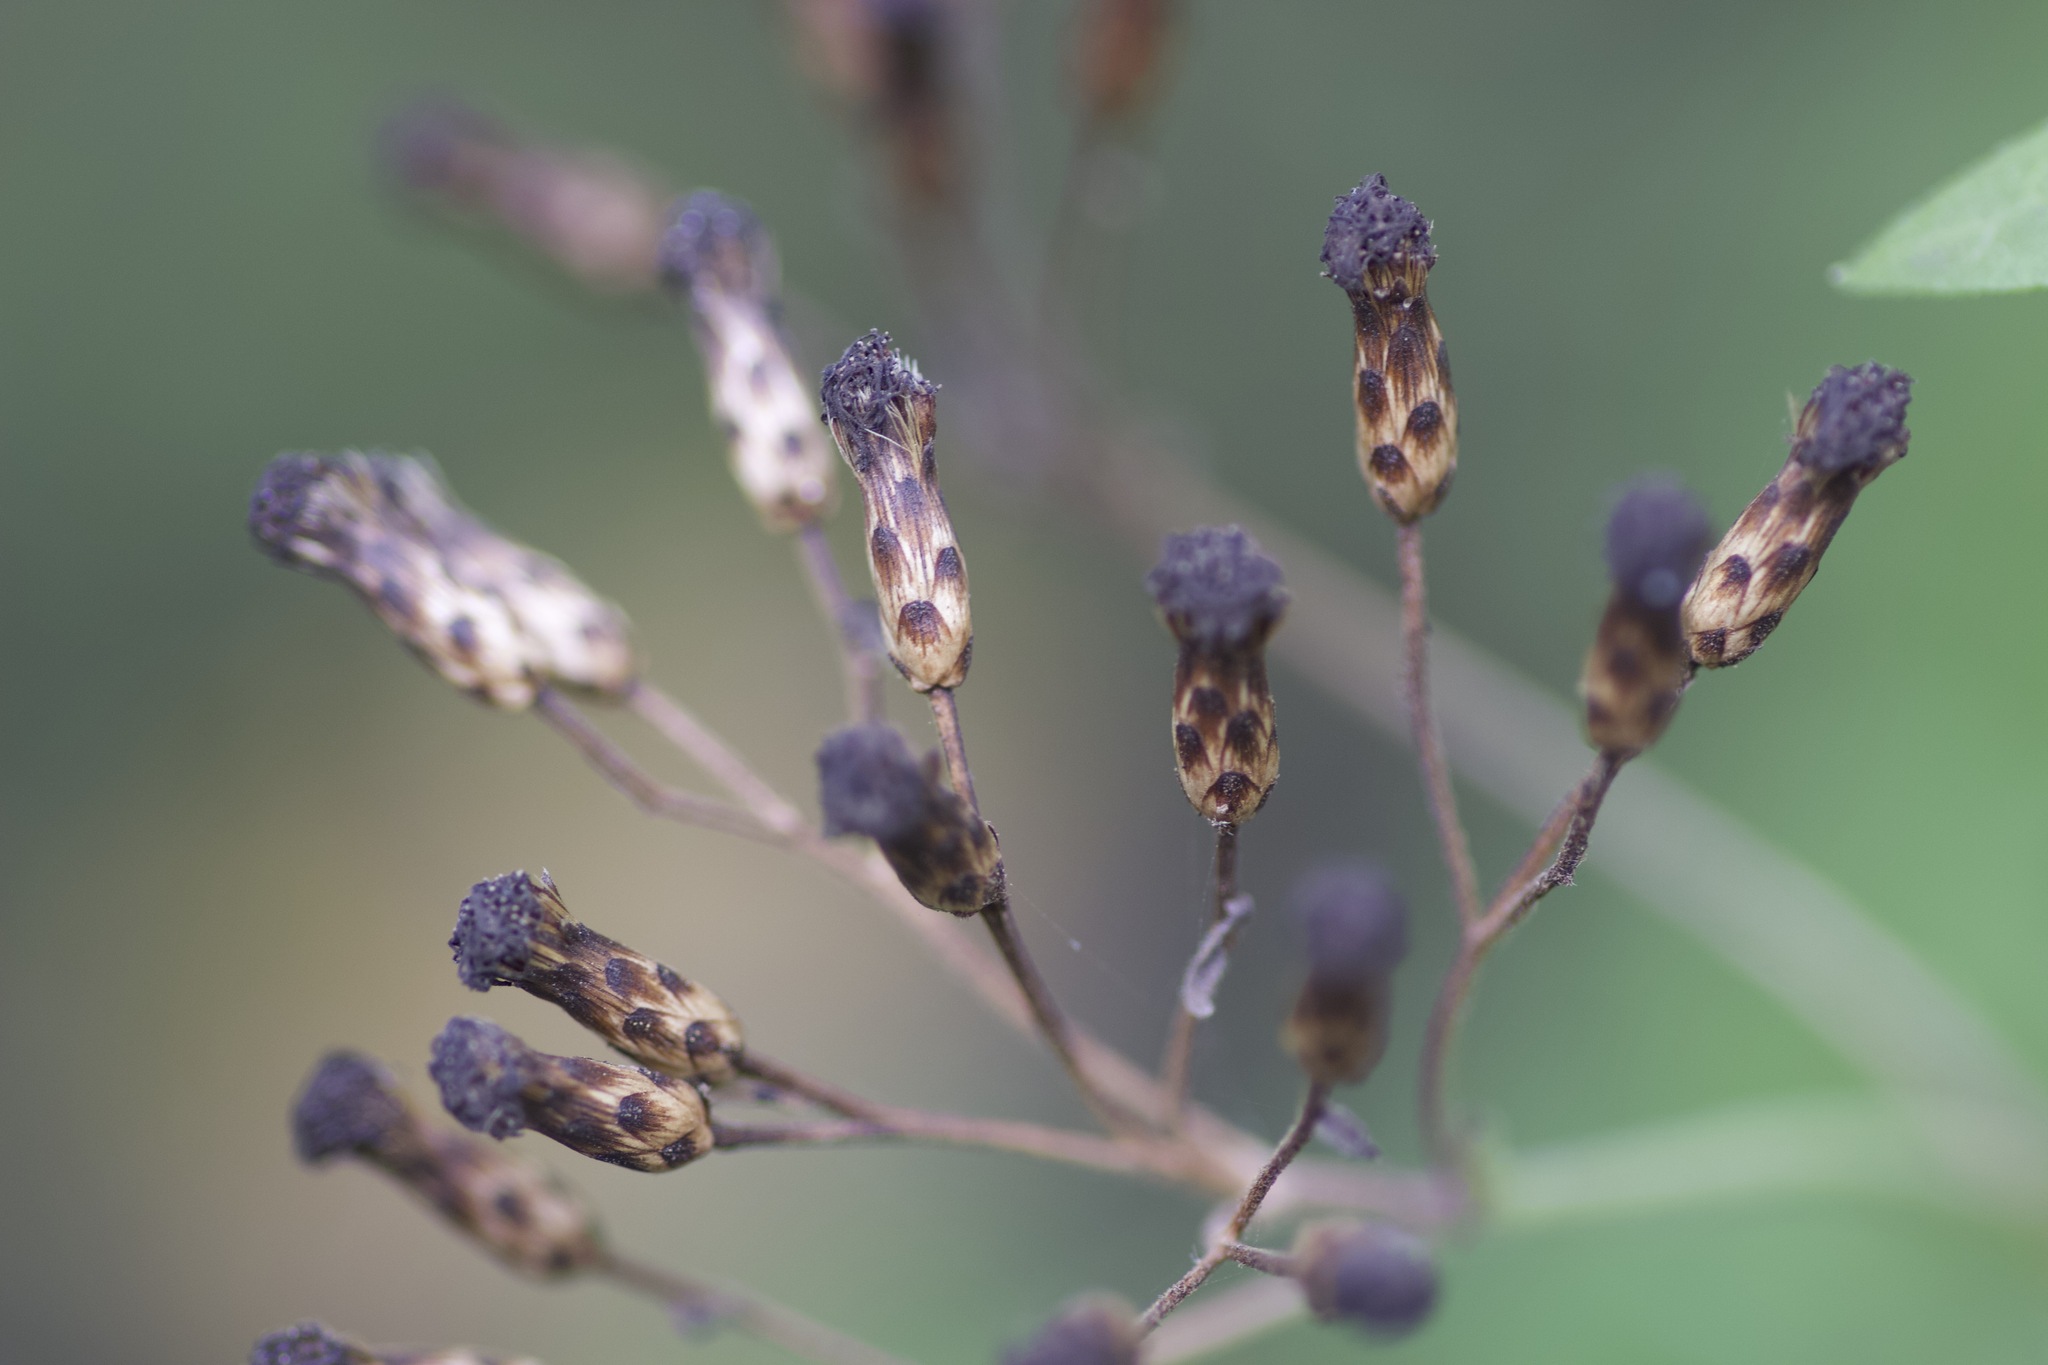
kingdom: Plantae
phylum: Tracheophyta
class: Magnoliopsida
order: Asterales
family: Asteraceae
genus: Chromolaena
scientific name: Chromolaena odorata
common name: Siamweed
